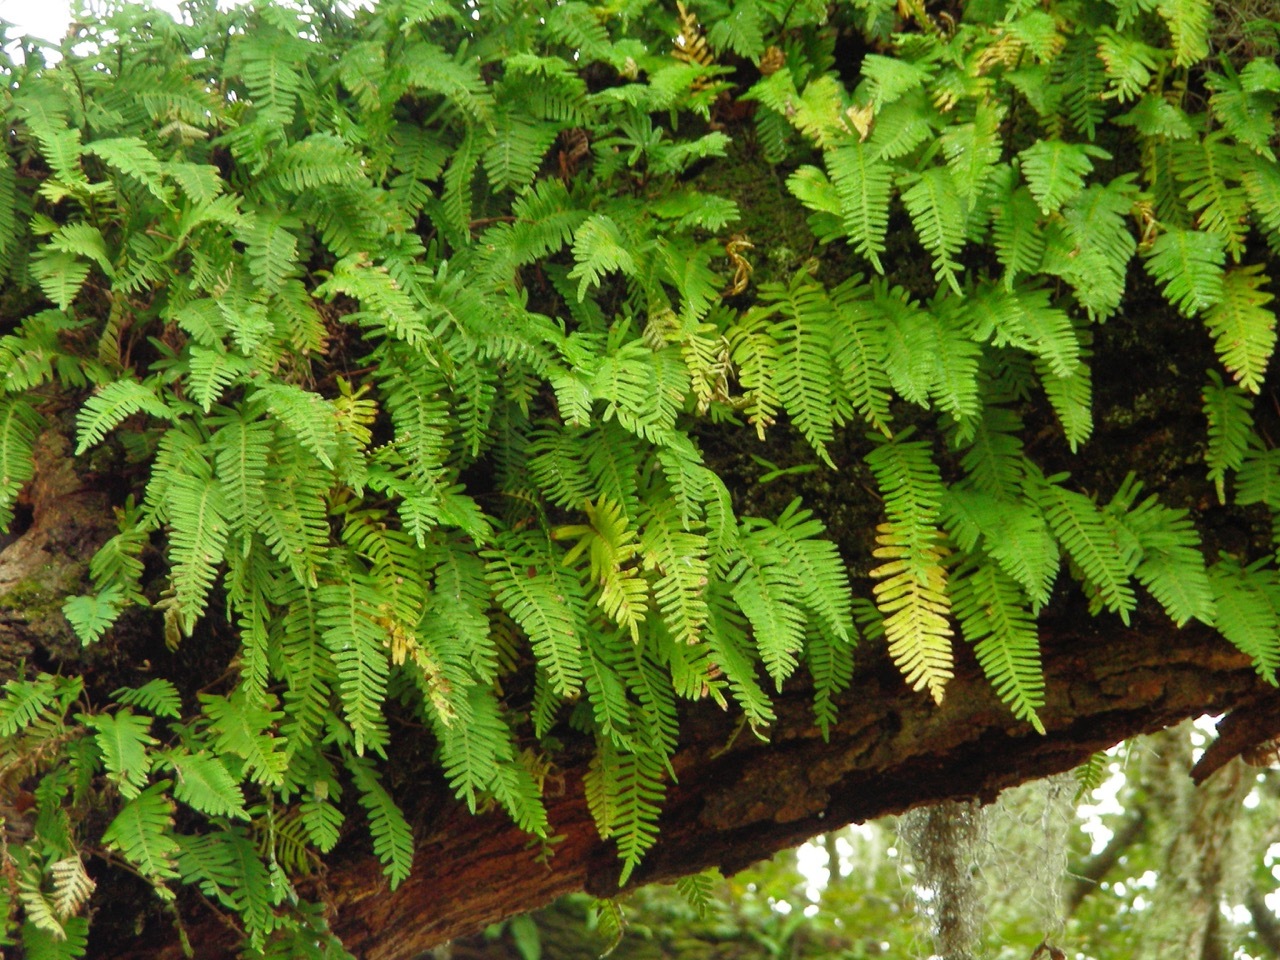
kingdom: Plantae
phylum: Tracheophyta
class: Polypodiopsida
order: Polypodiales
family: Polypodiaceae
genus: Pleopeltis
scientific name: Pleopeltis michauxiana
